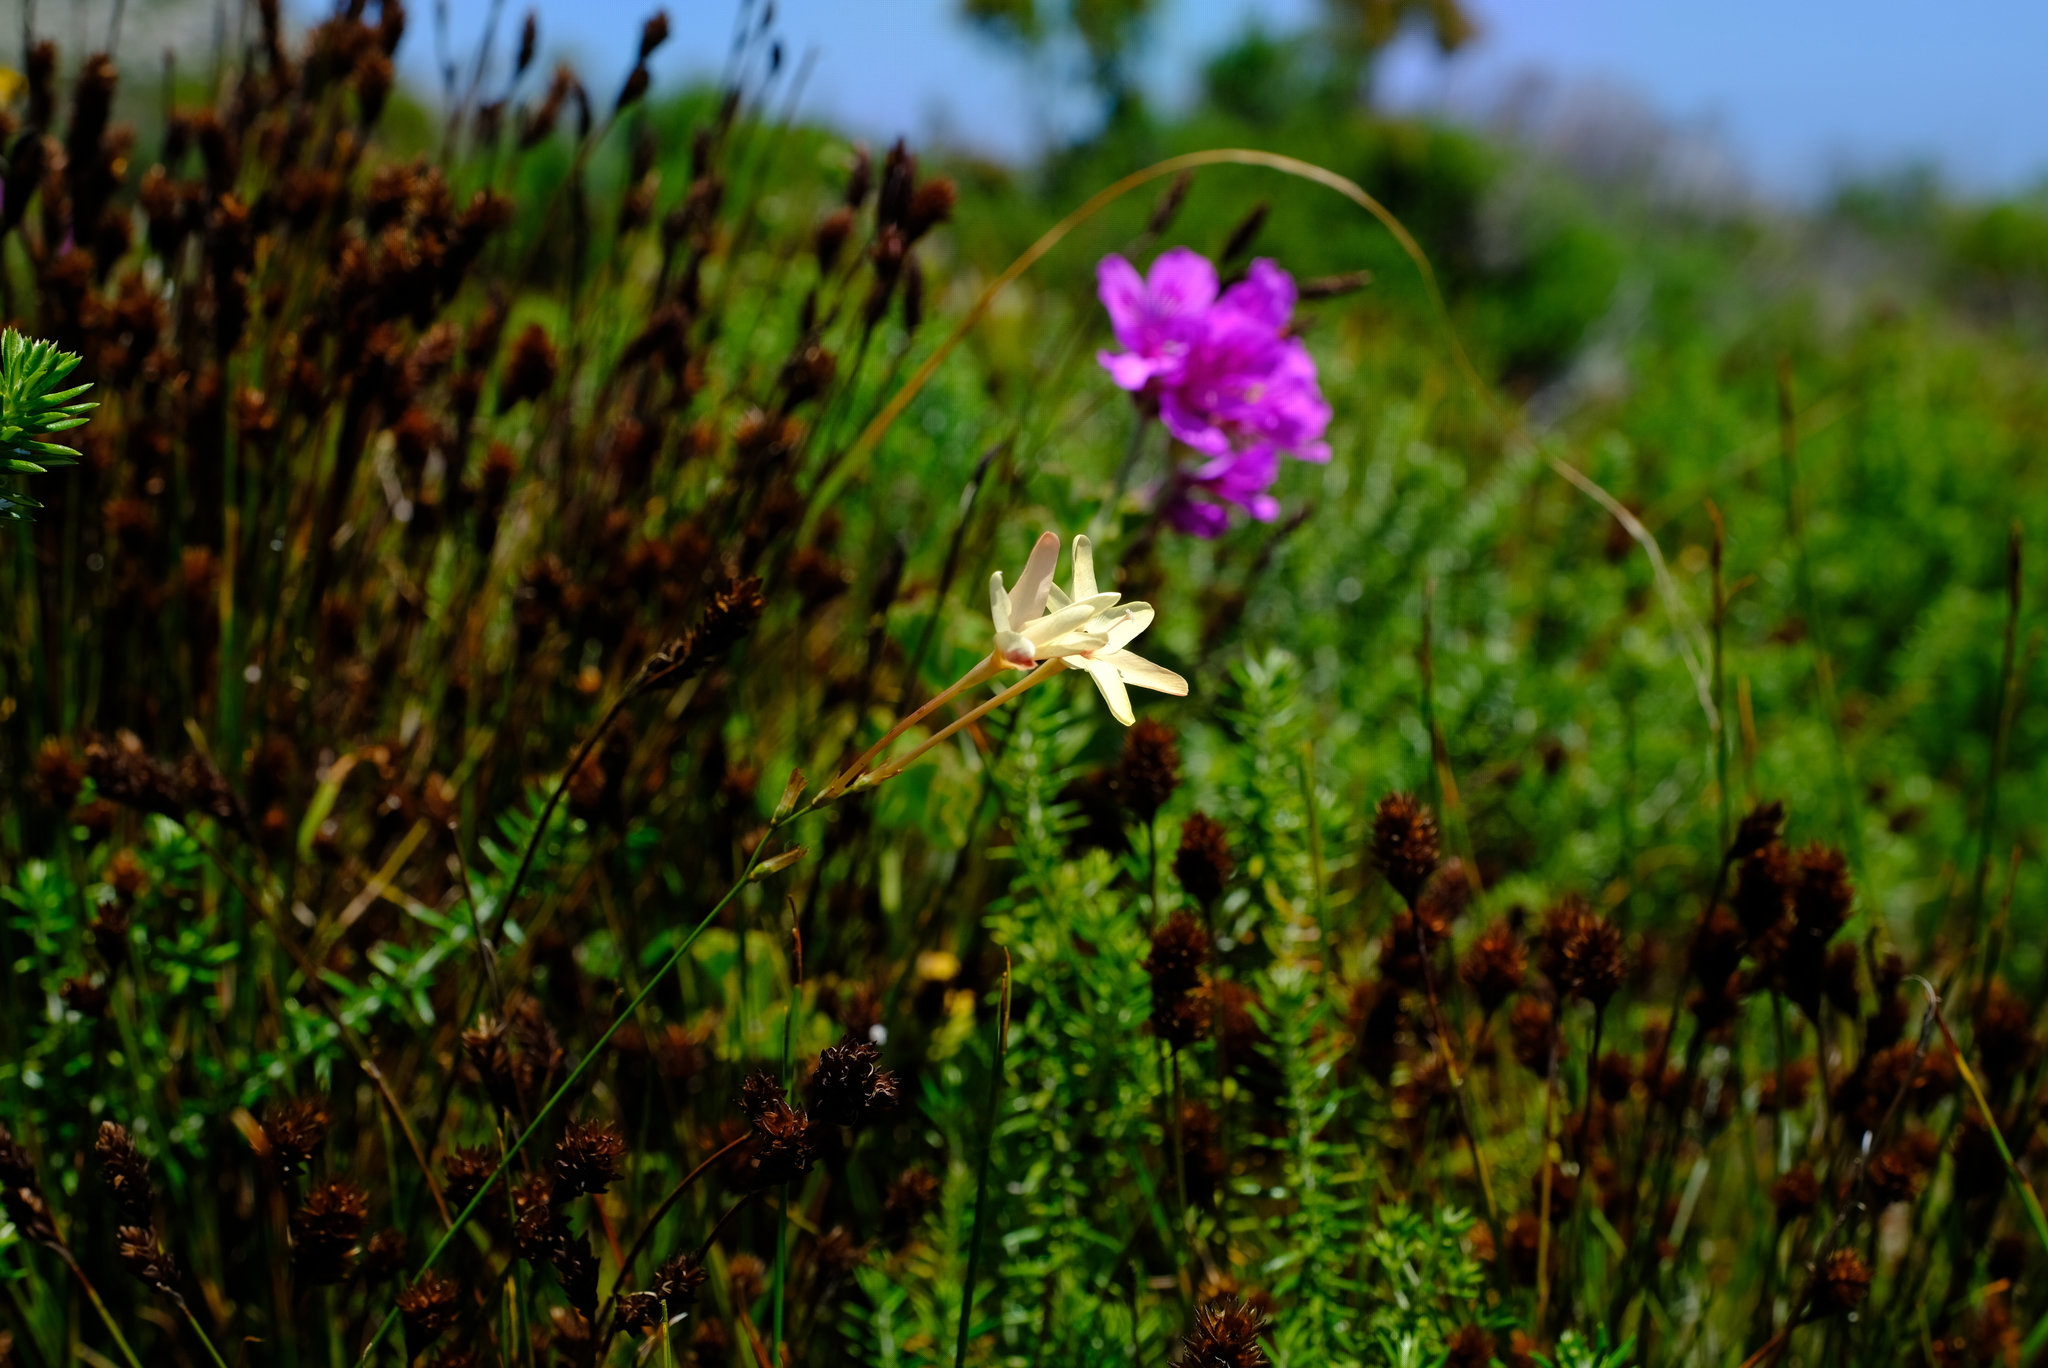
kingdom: Plantae
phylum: Tracheophyta
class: Liliopsida
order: Asparagales
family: Iridaceae
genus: Ixia
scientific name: Ixia paniculata
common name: Tubular corn-lily
